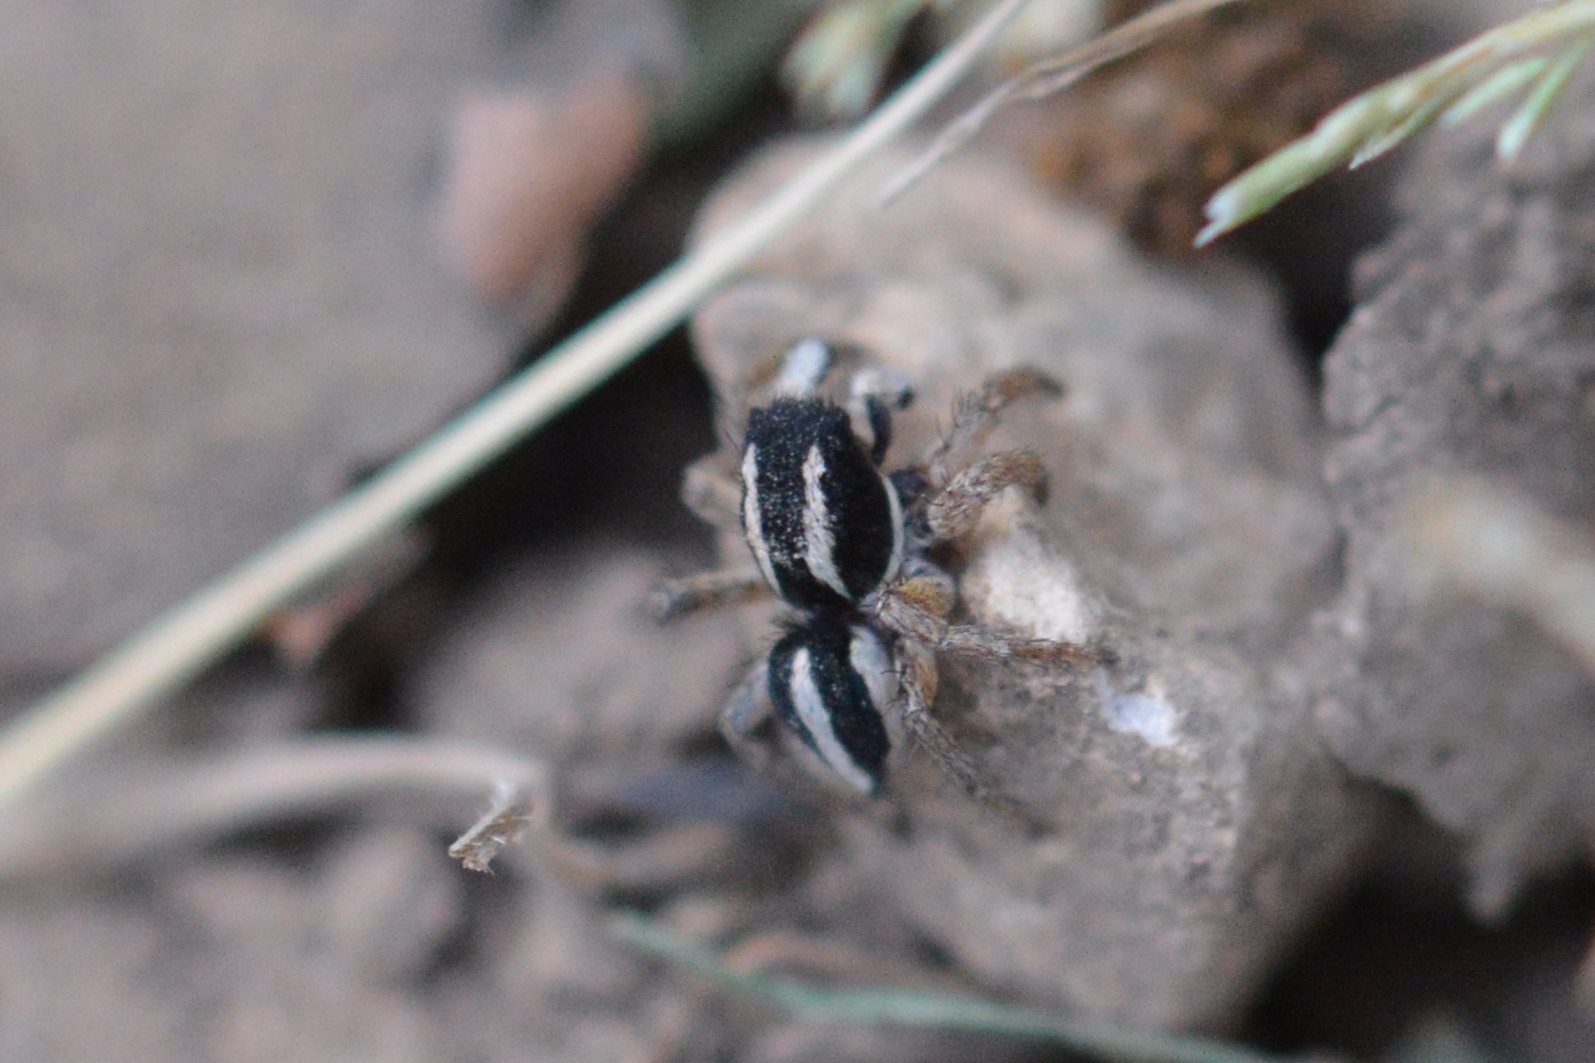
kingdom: Animalia
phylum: Arthropoda
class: Arachnida
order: Araneae
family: Salticidae
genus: Aelurillus
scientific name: Aelurillus luctuosus
